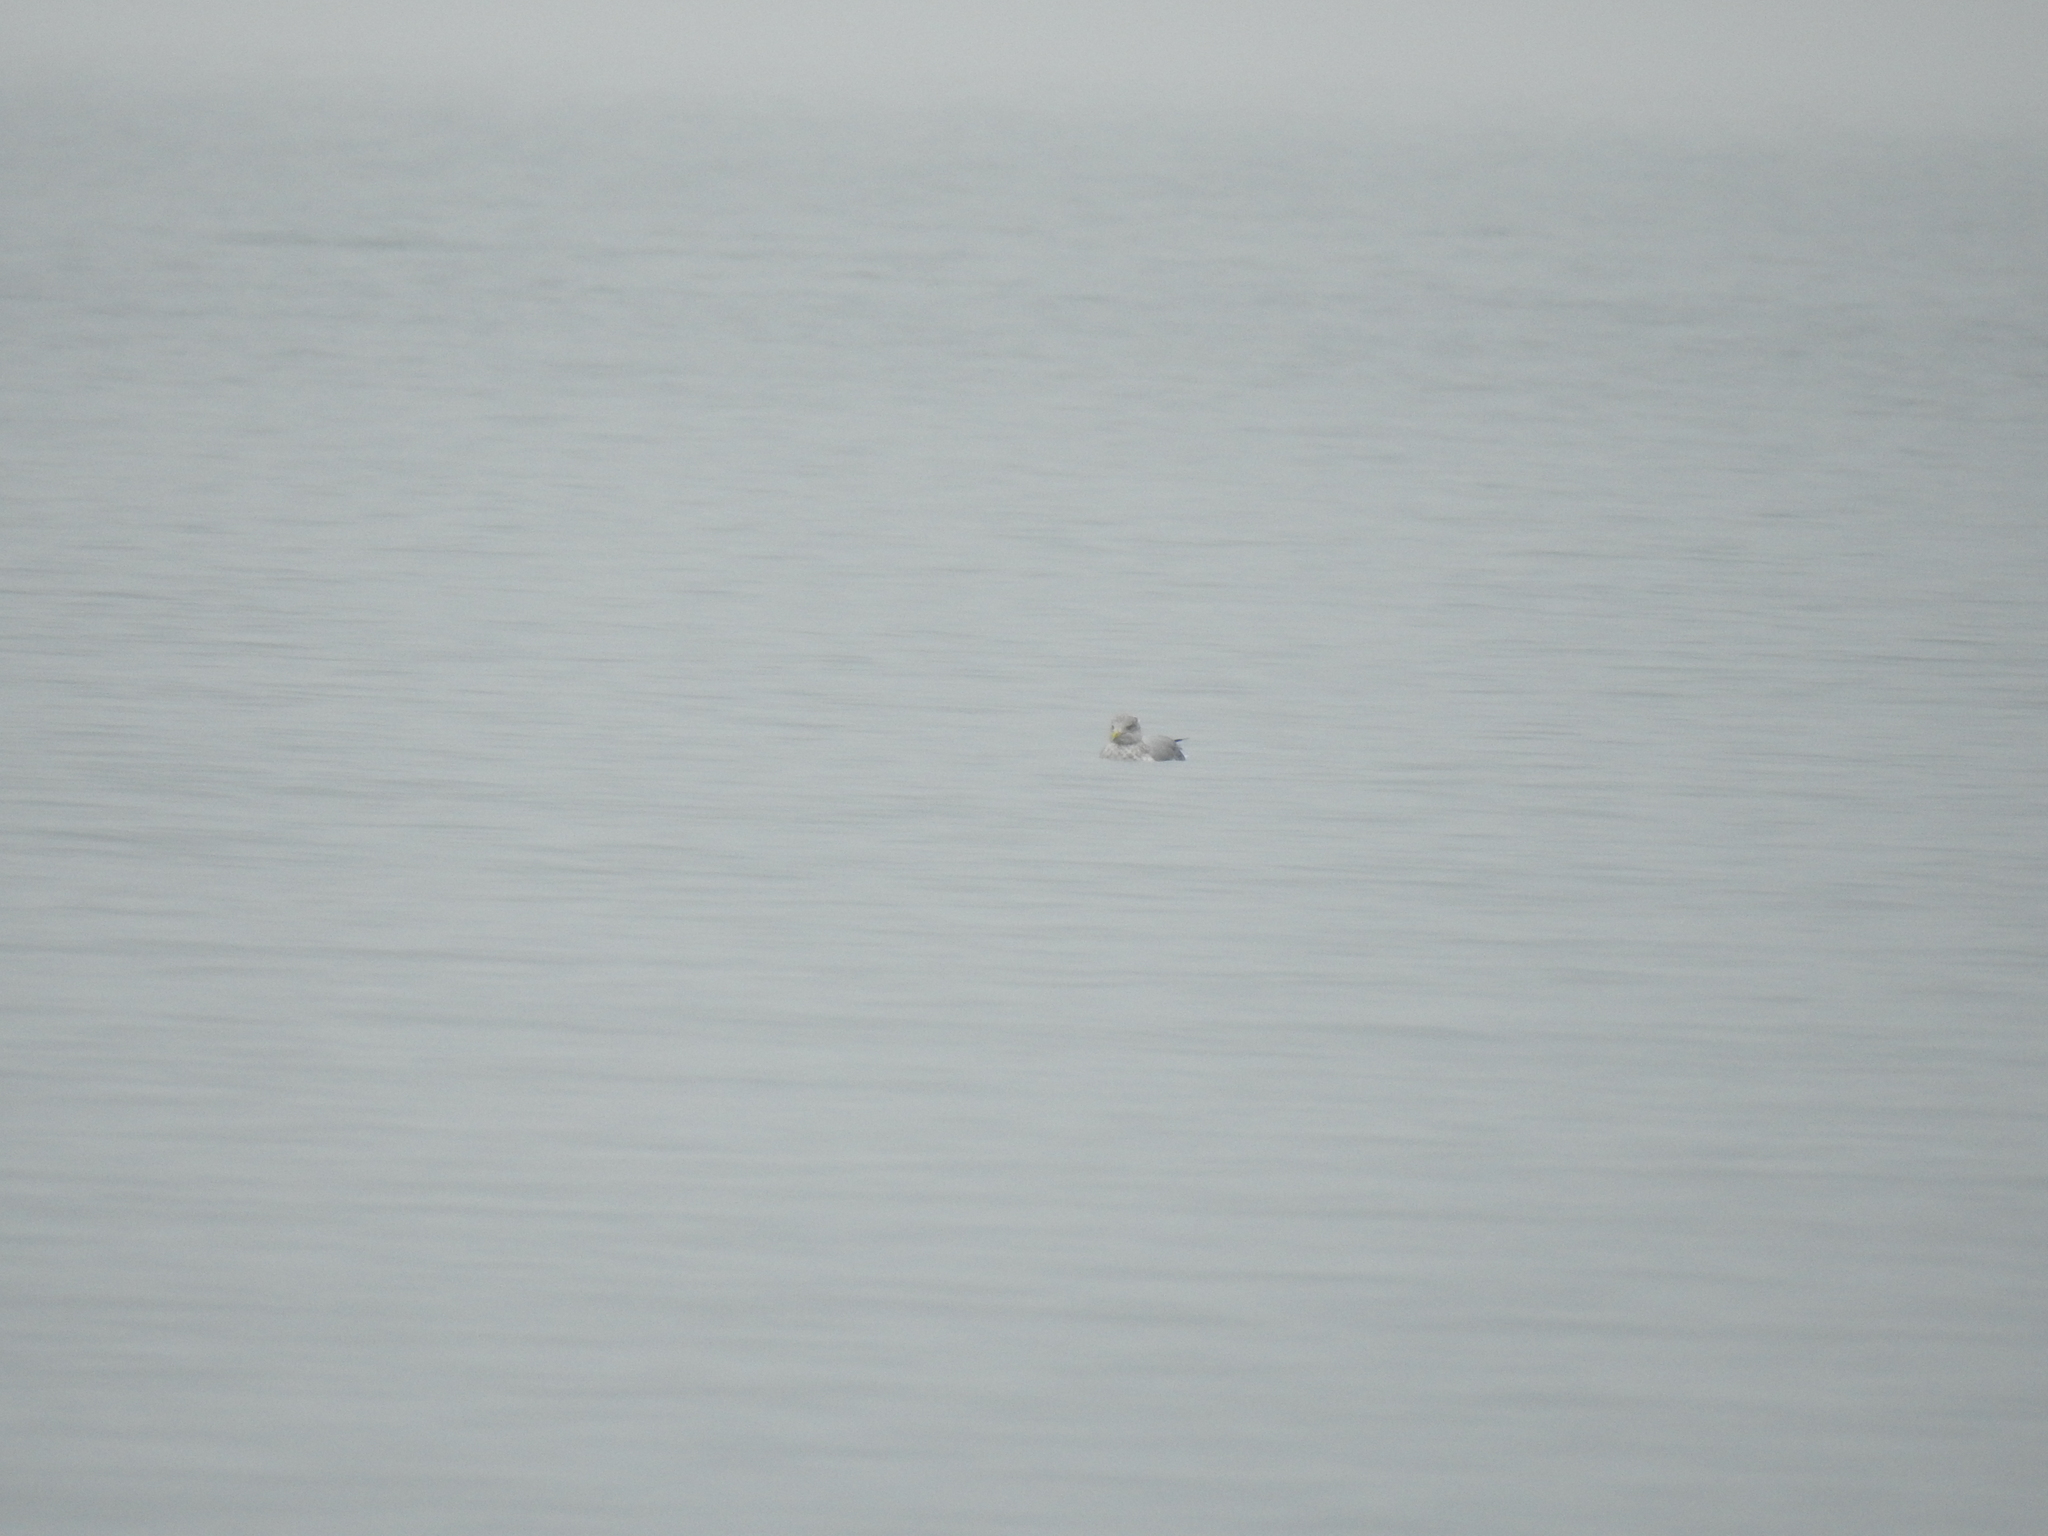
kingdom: Animalia
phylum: Chordata
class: Aves
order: Charadriiformes
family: Laridae
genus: Larus
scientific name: Larus argentatus
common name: Herring gull
